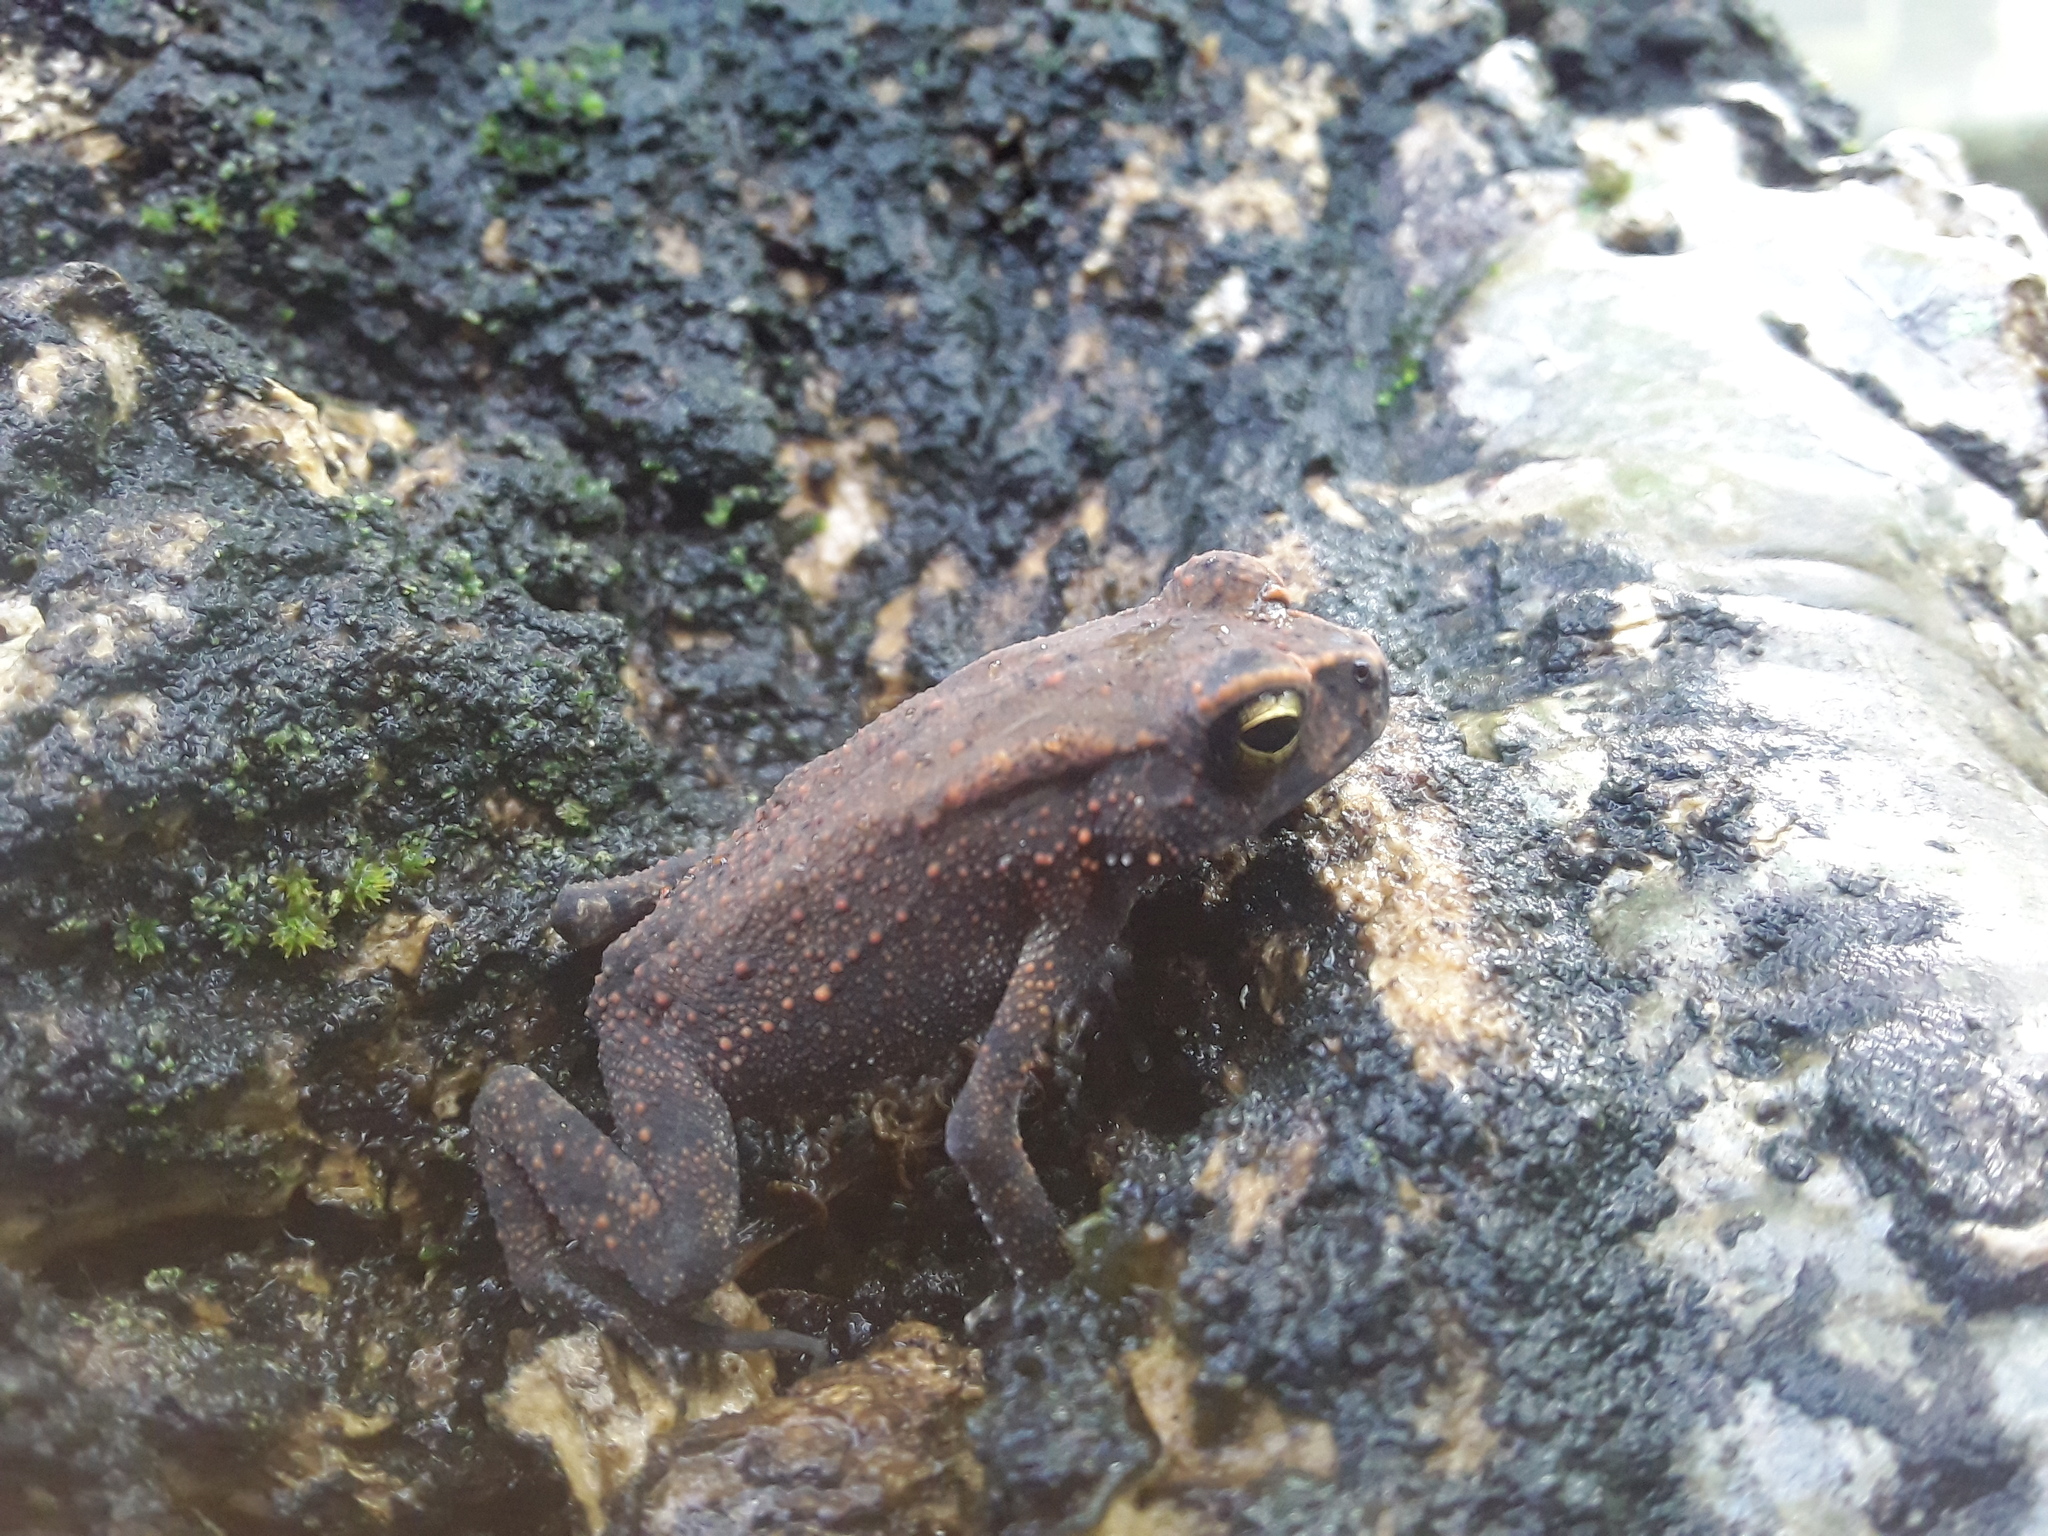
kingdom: Animalia
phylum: Chordata
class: Amphibia
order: Anura
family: Bufonidae
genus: Duttaphrynus
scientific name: Duttaphrynus melanostictus
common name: Common sunda toad
